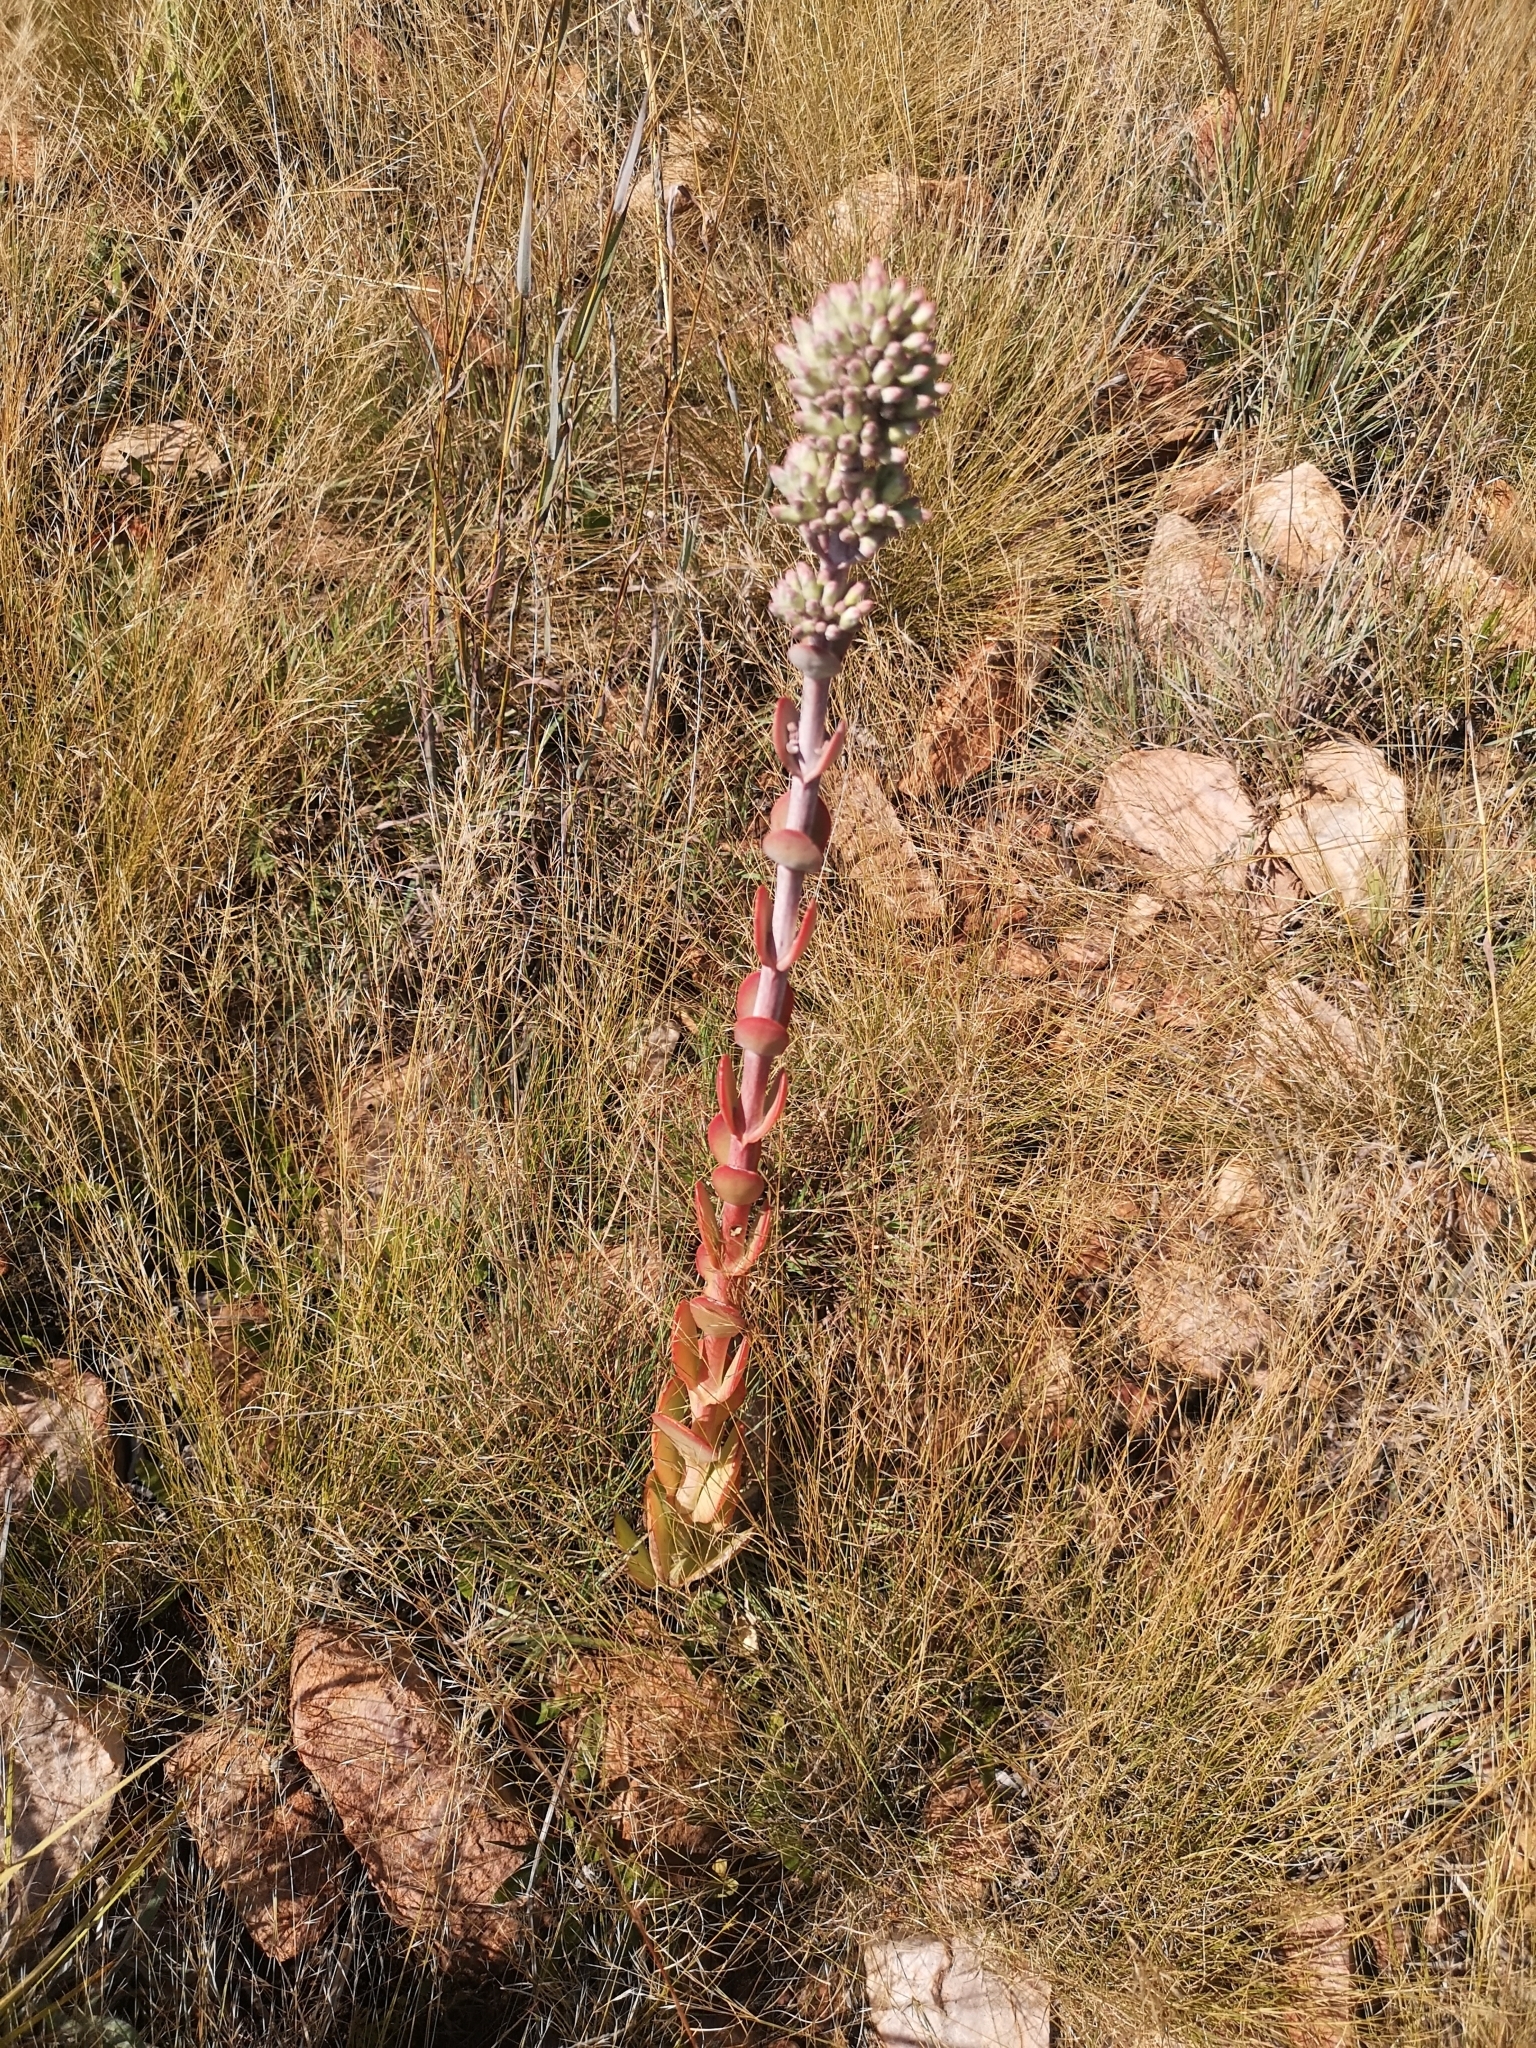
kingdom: Plantae
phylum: Tracheophyta
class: Magnoliopsida
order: Saxifragales
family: Crassulaceae
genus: Kalanchoe
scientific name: Kalanchoe thyrsiflora
